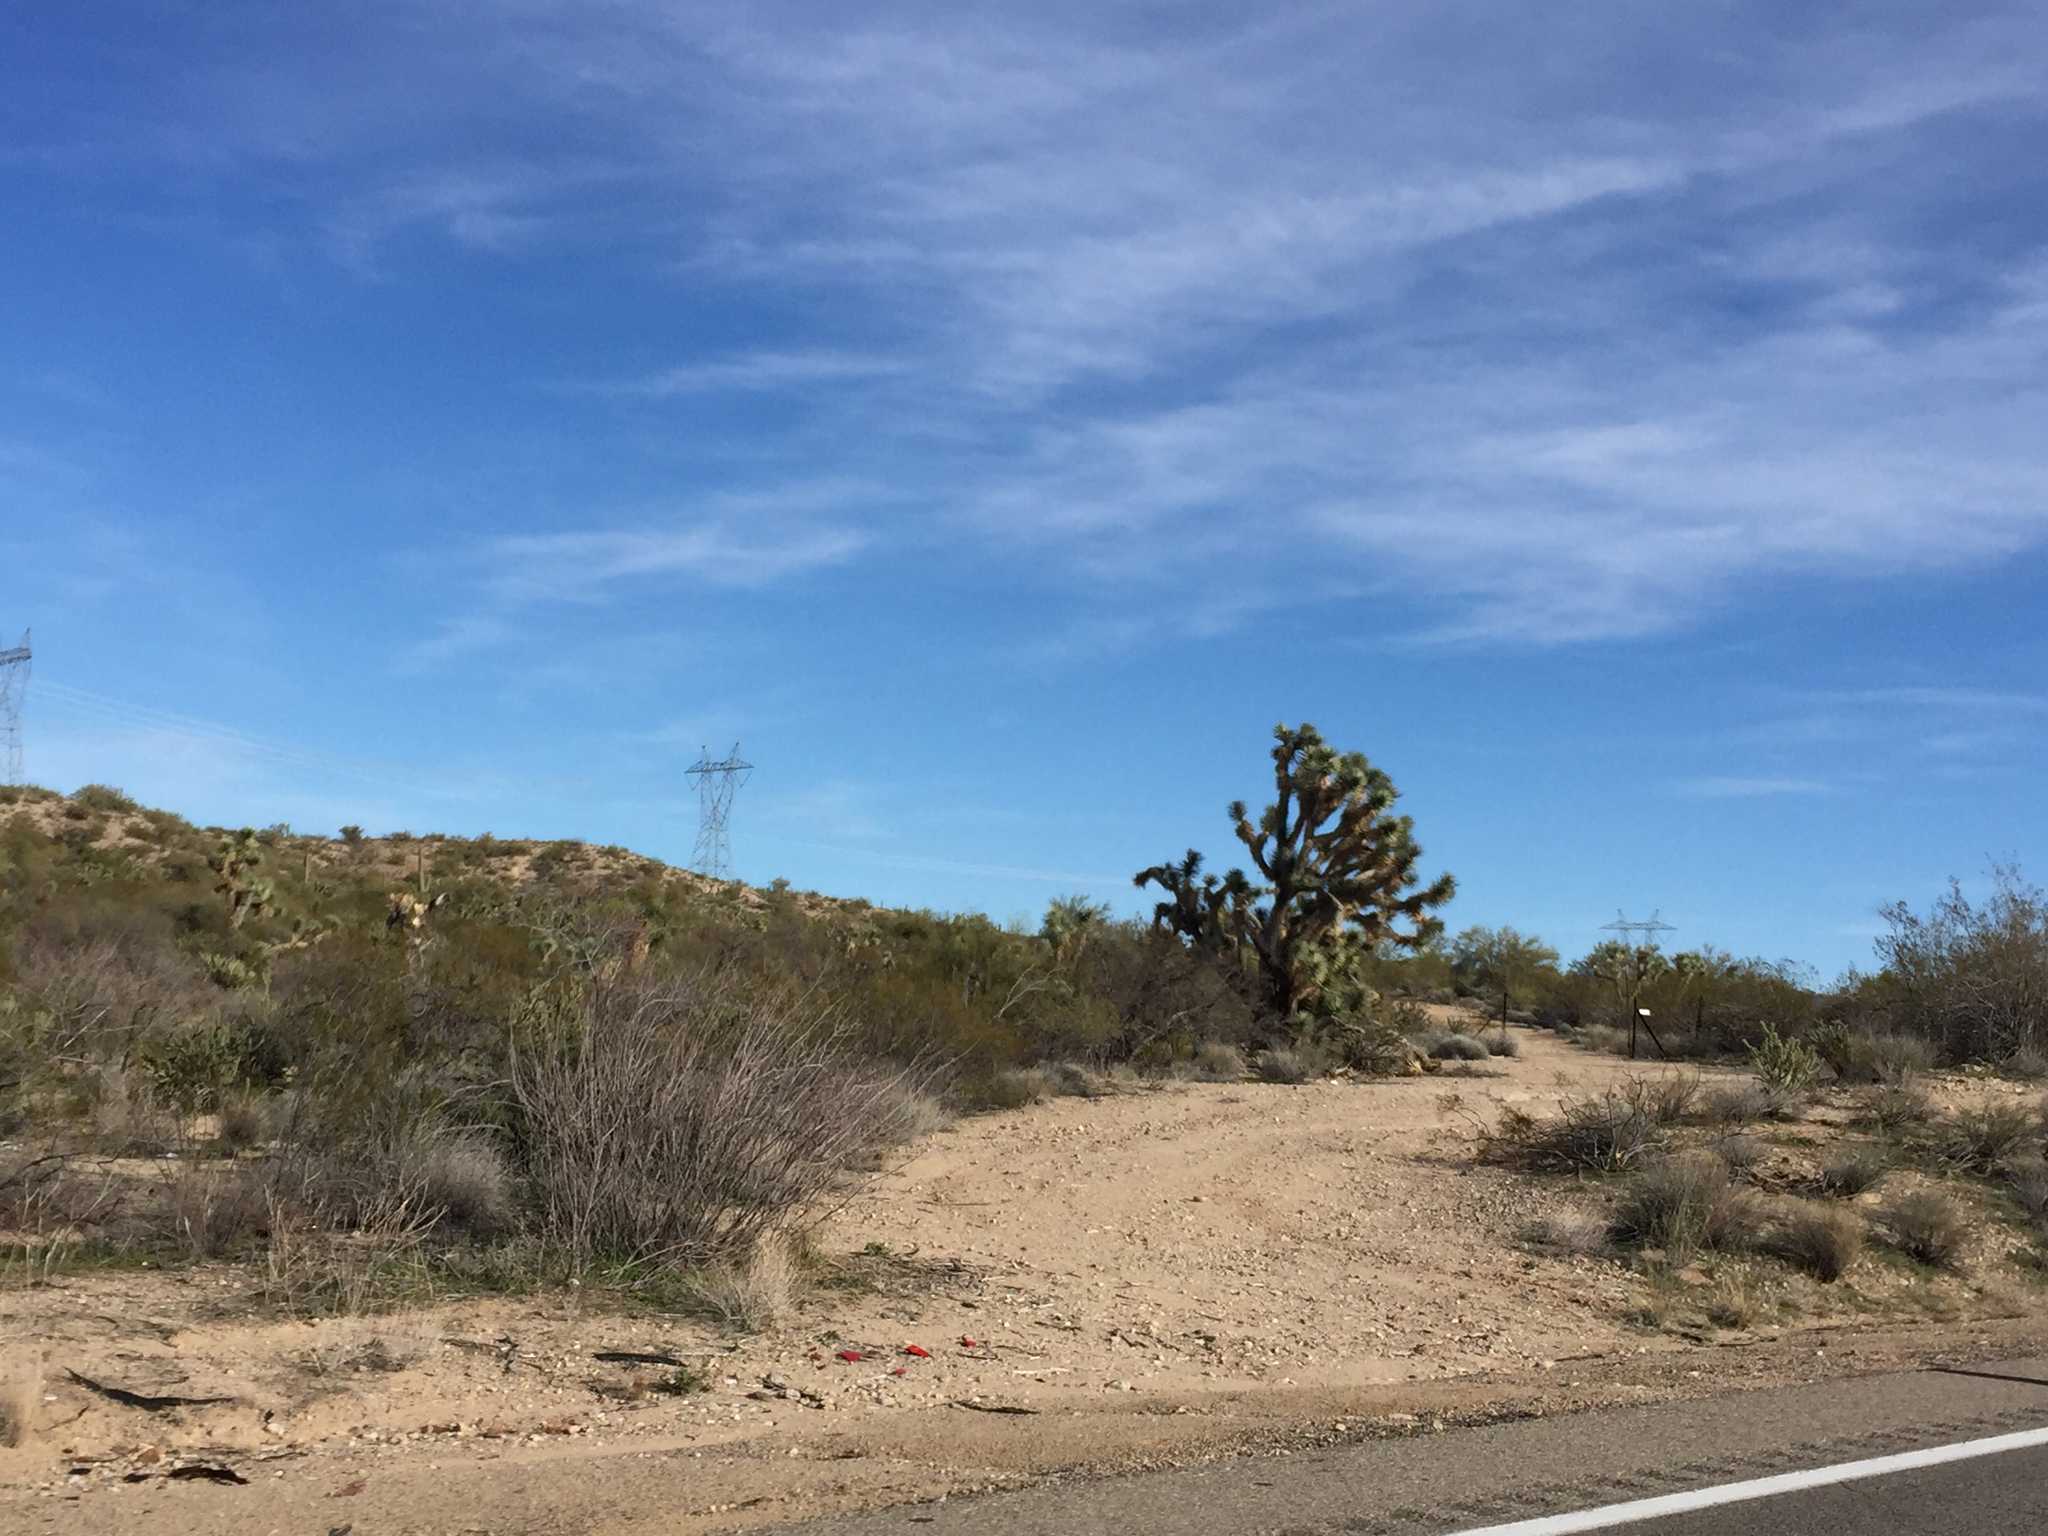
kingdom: Plantae
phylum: Tracheophyta
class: Liliopsida
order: Asparagales
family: Asparagaceae
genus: Yucca
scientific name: Yucca brevifolia
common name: Joshua tree
